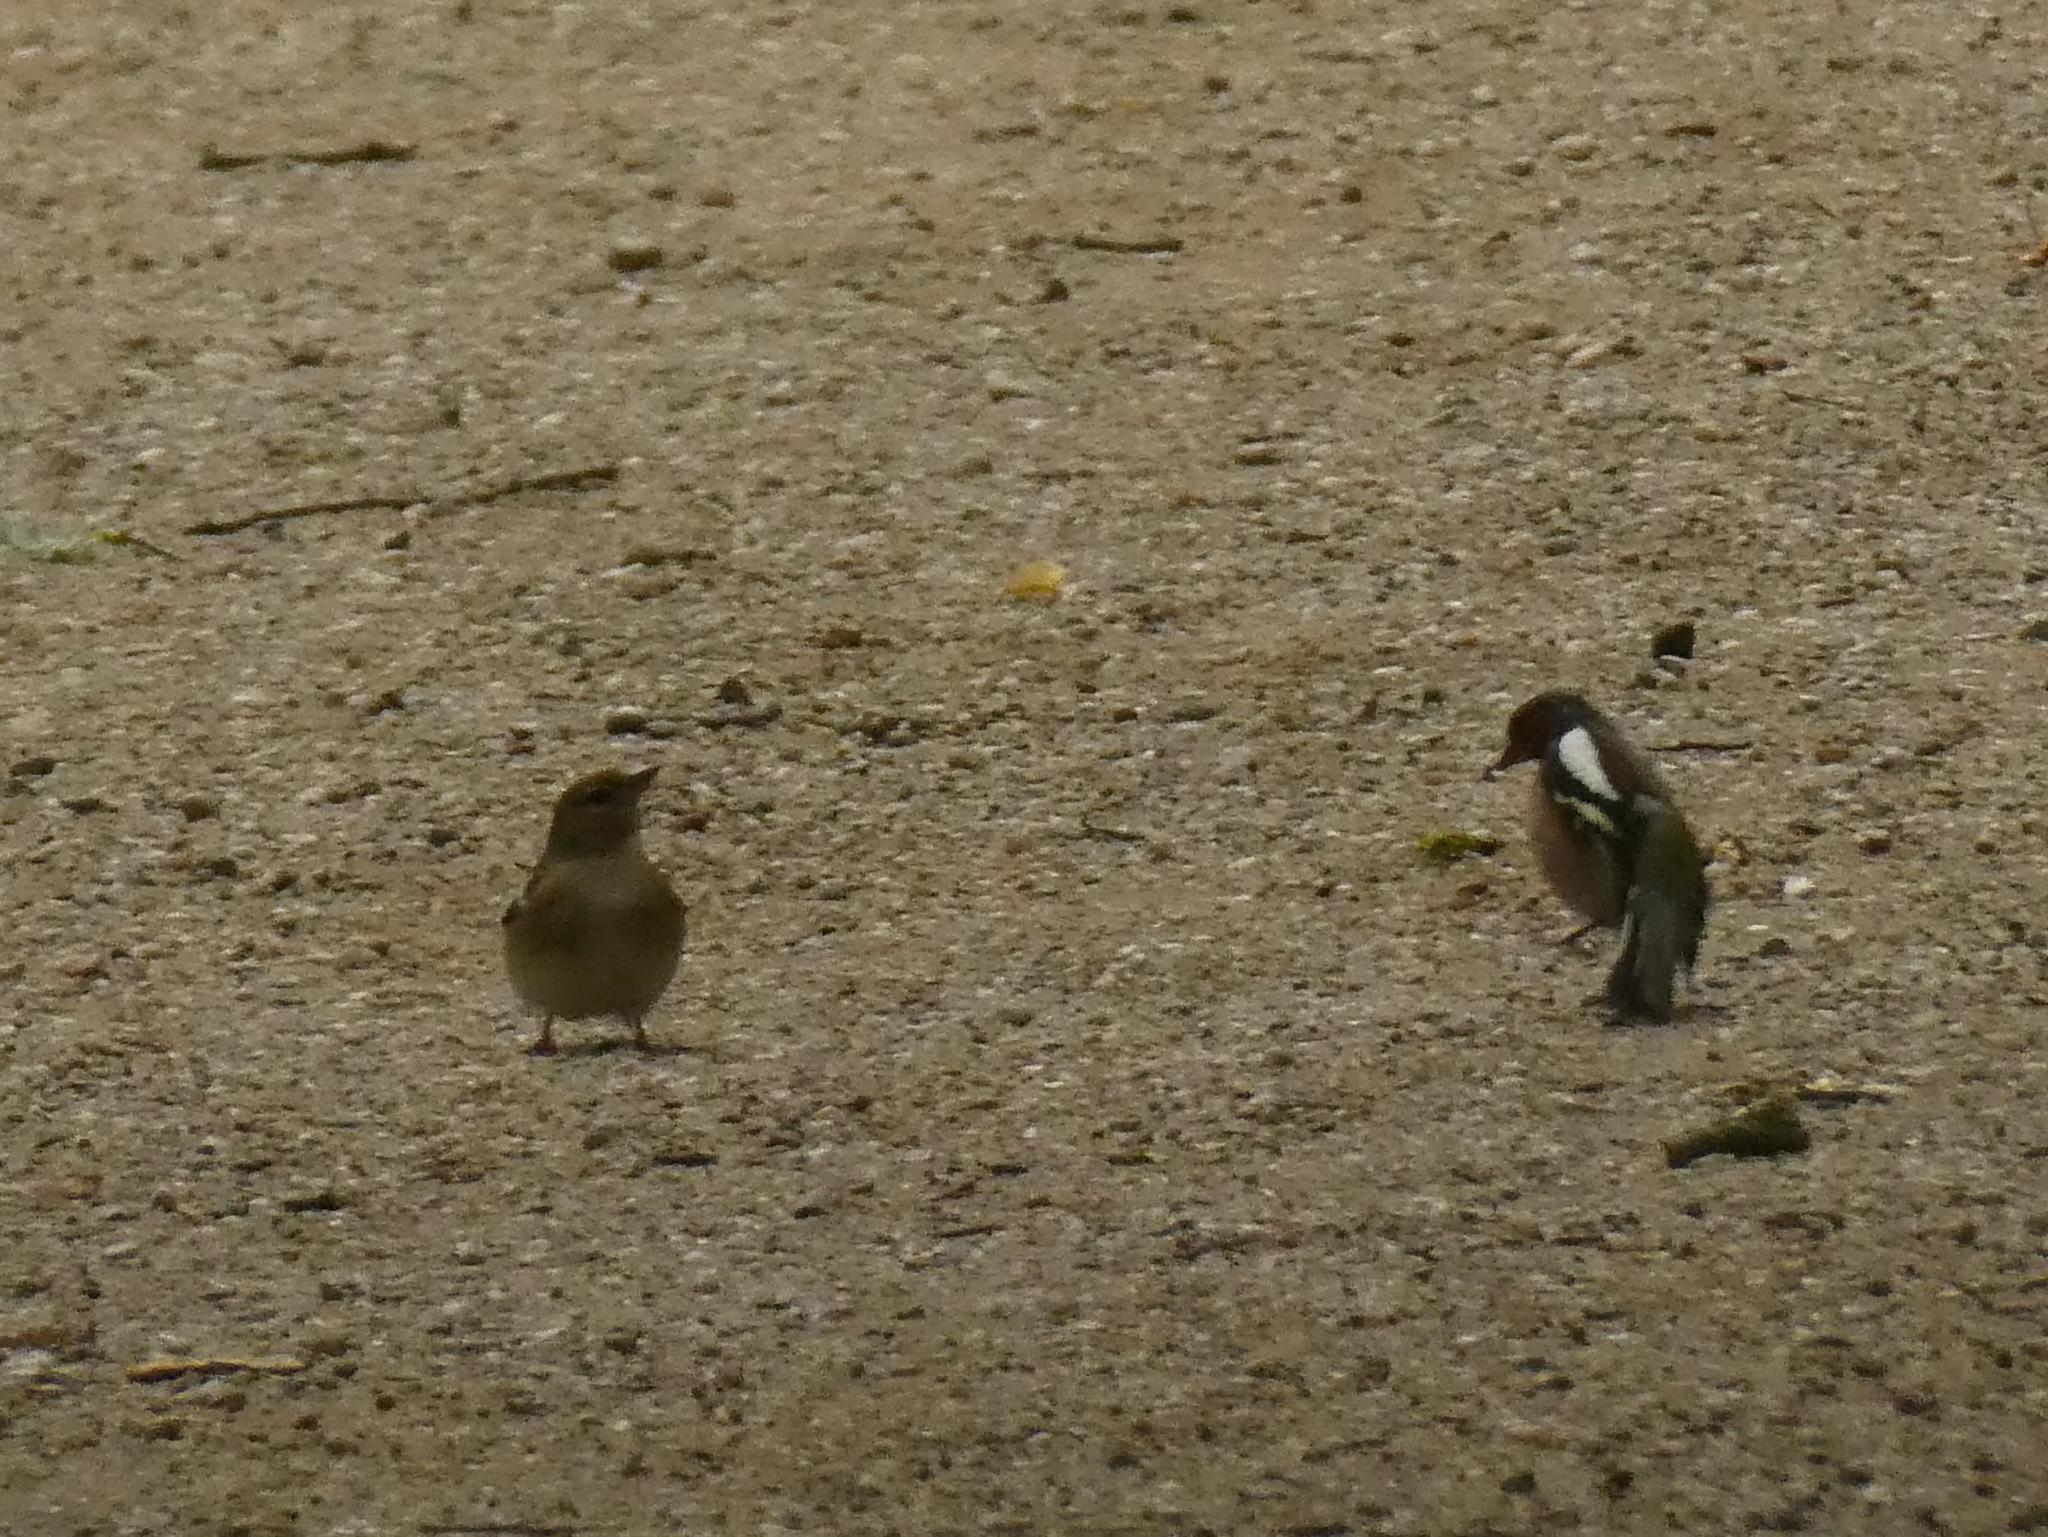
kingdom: Animalia
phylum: Chordata
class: Aves
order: Passeriformes
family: Fringillidae
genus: Fringilla
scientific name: Fringilla coelebs
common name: Common chaffinch
